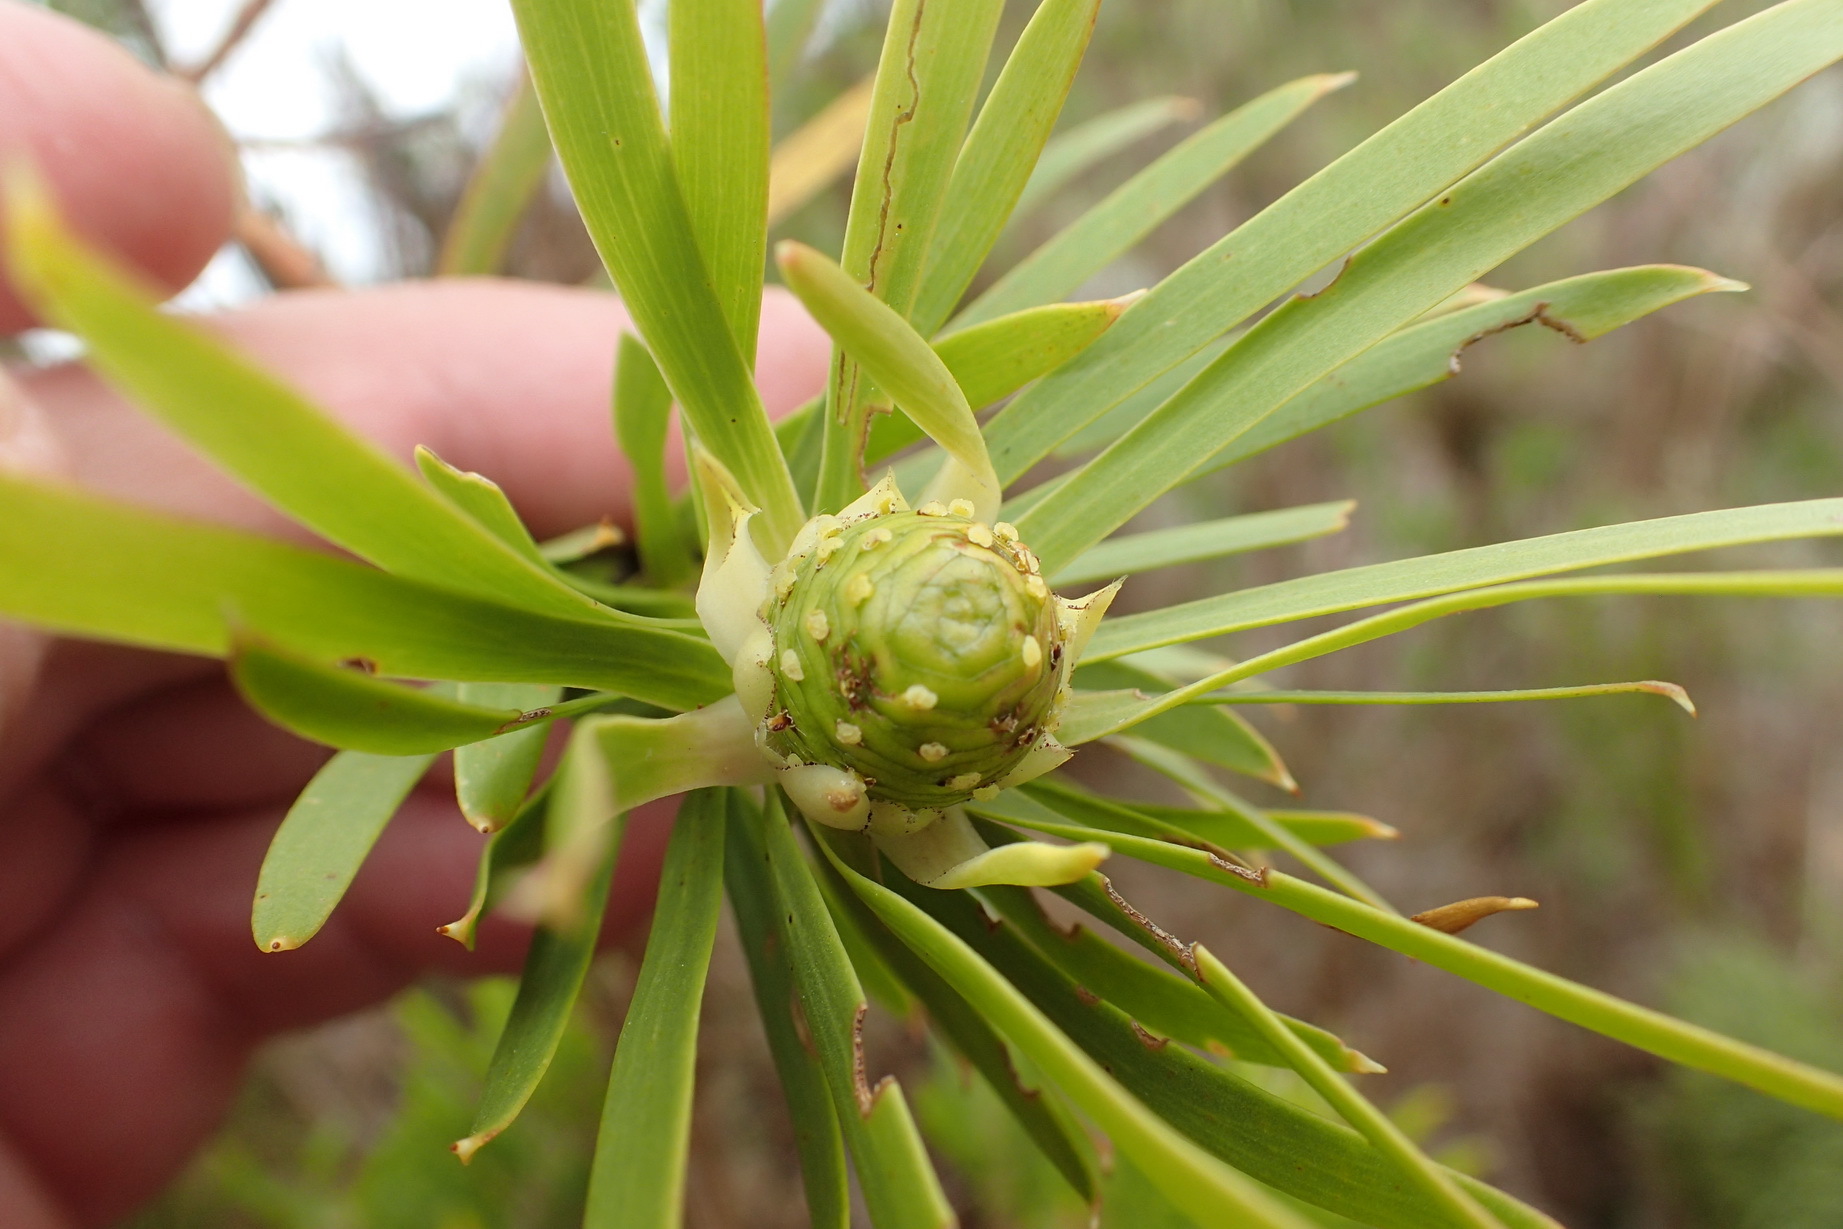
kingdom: Plantae
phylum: Tracheophyta
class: Magnoliopsida
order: Proteales
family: Proteaceae
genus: Leucadendron
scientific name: Leucadendron salicifolium
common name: Common stream conebush
